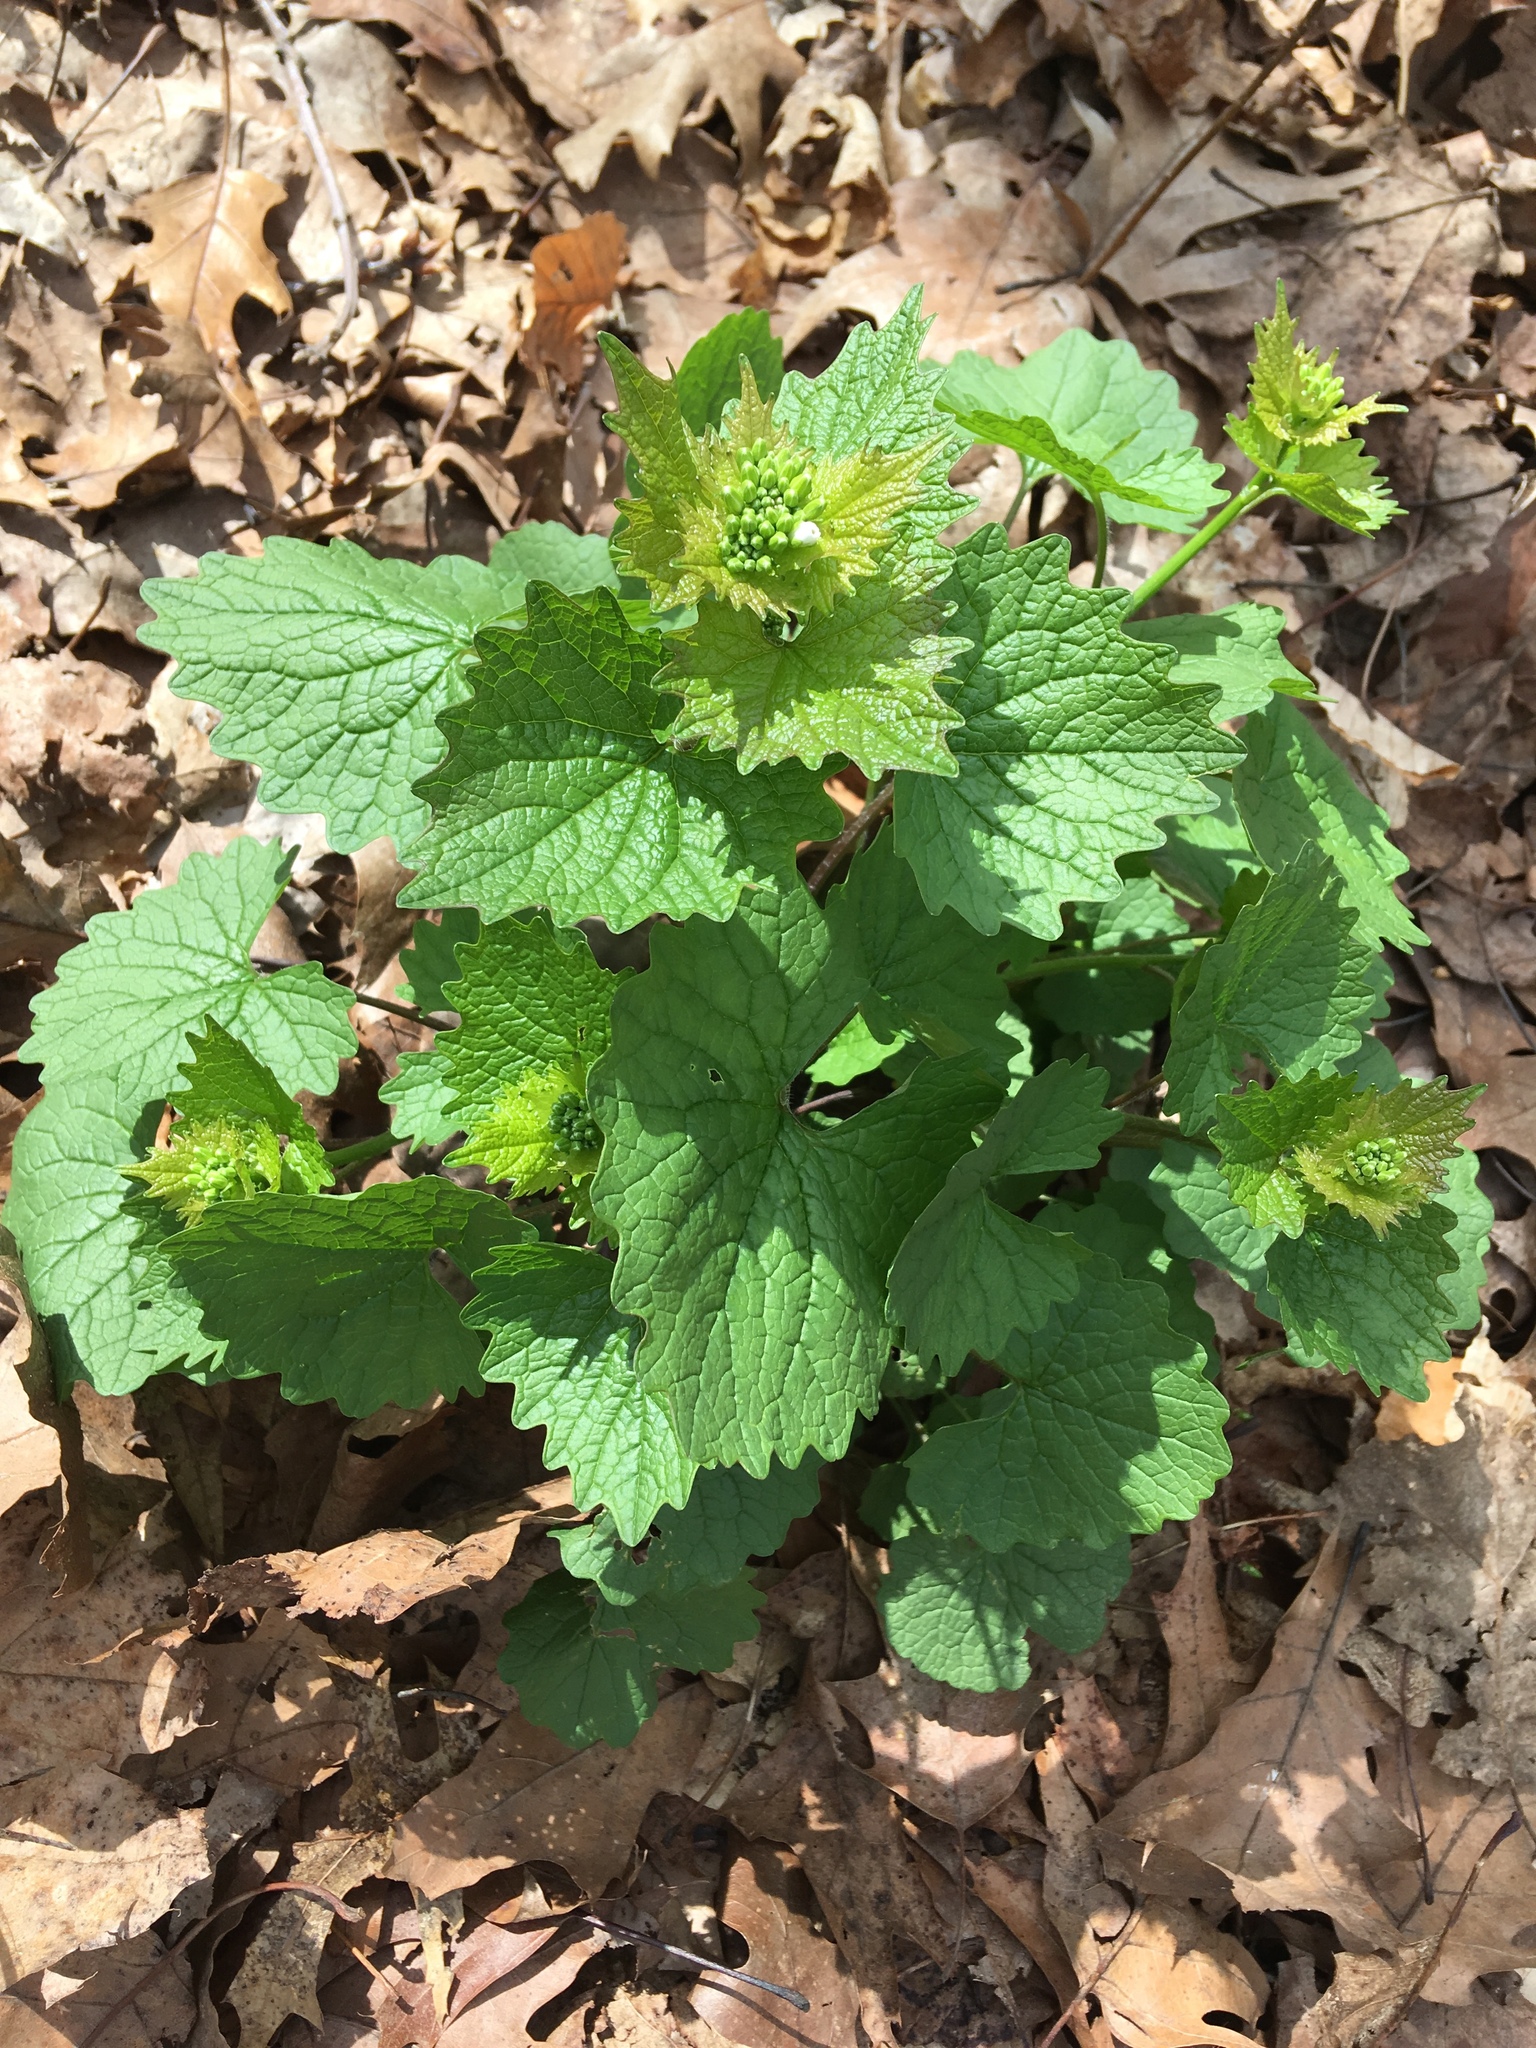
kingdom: Plantae
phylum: Tracheophyta
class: Magnoliopsida
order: Brassicales
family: Brassicaceae
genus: Alliaria
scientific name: Alliaria petiolata
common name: Garlic mustard
